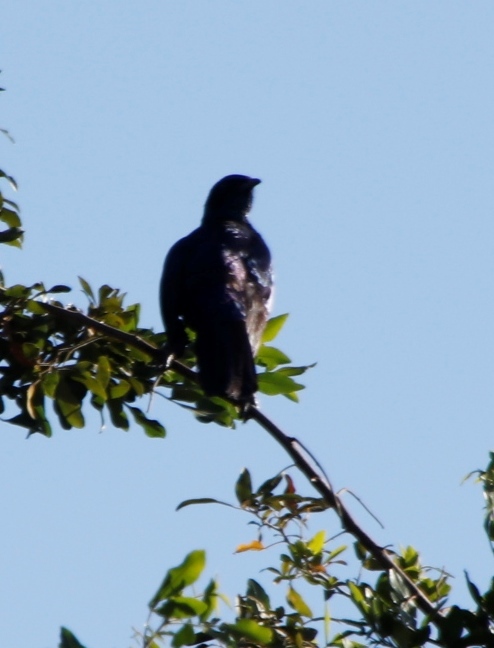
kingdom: Animalia
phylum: Chordata
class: Aves
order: Passeriformes
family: Sturnidae
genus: Lamprotornis
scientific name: Lamprotornis australis
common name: Burchell's starling
